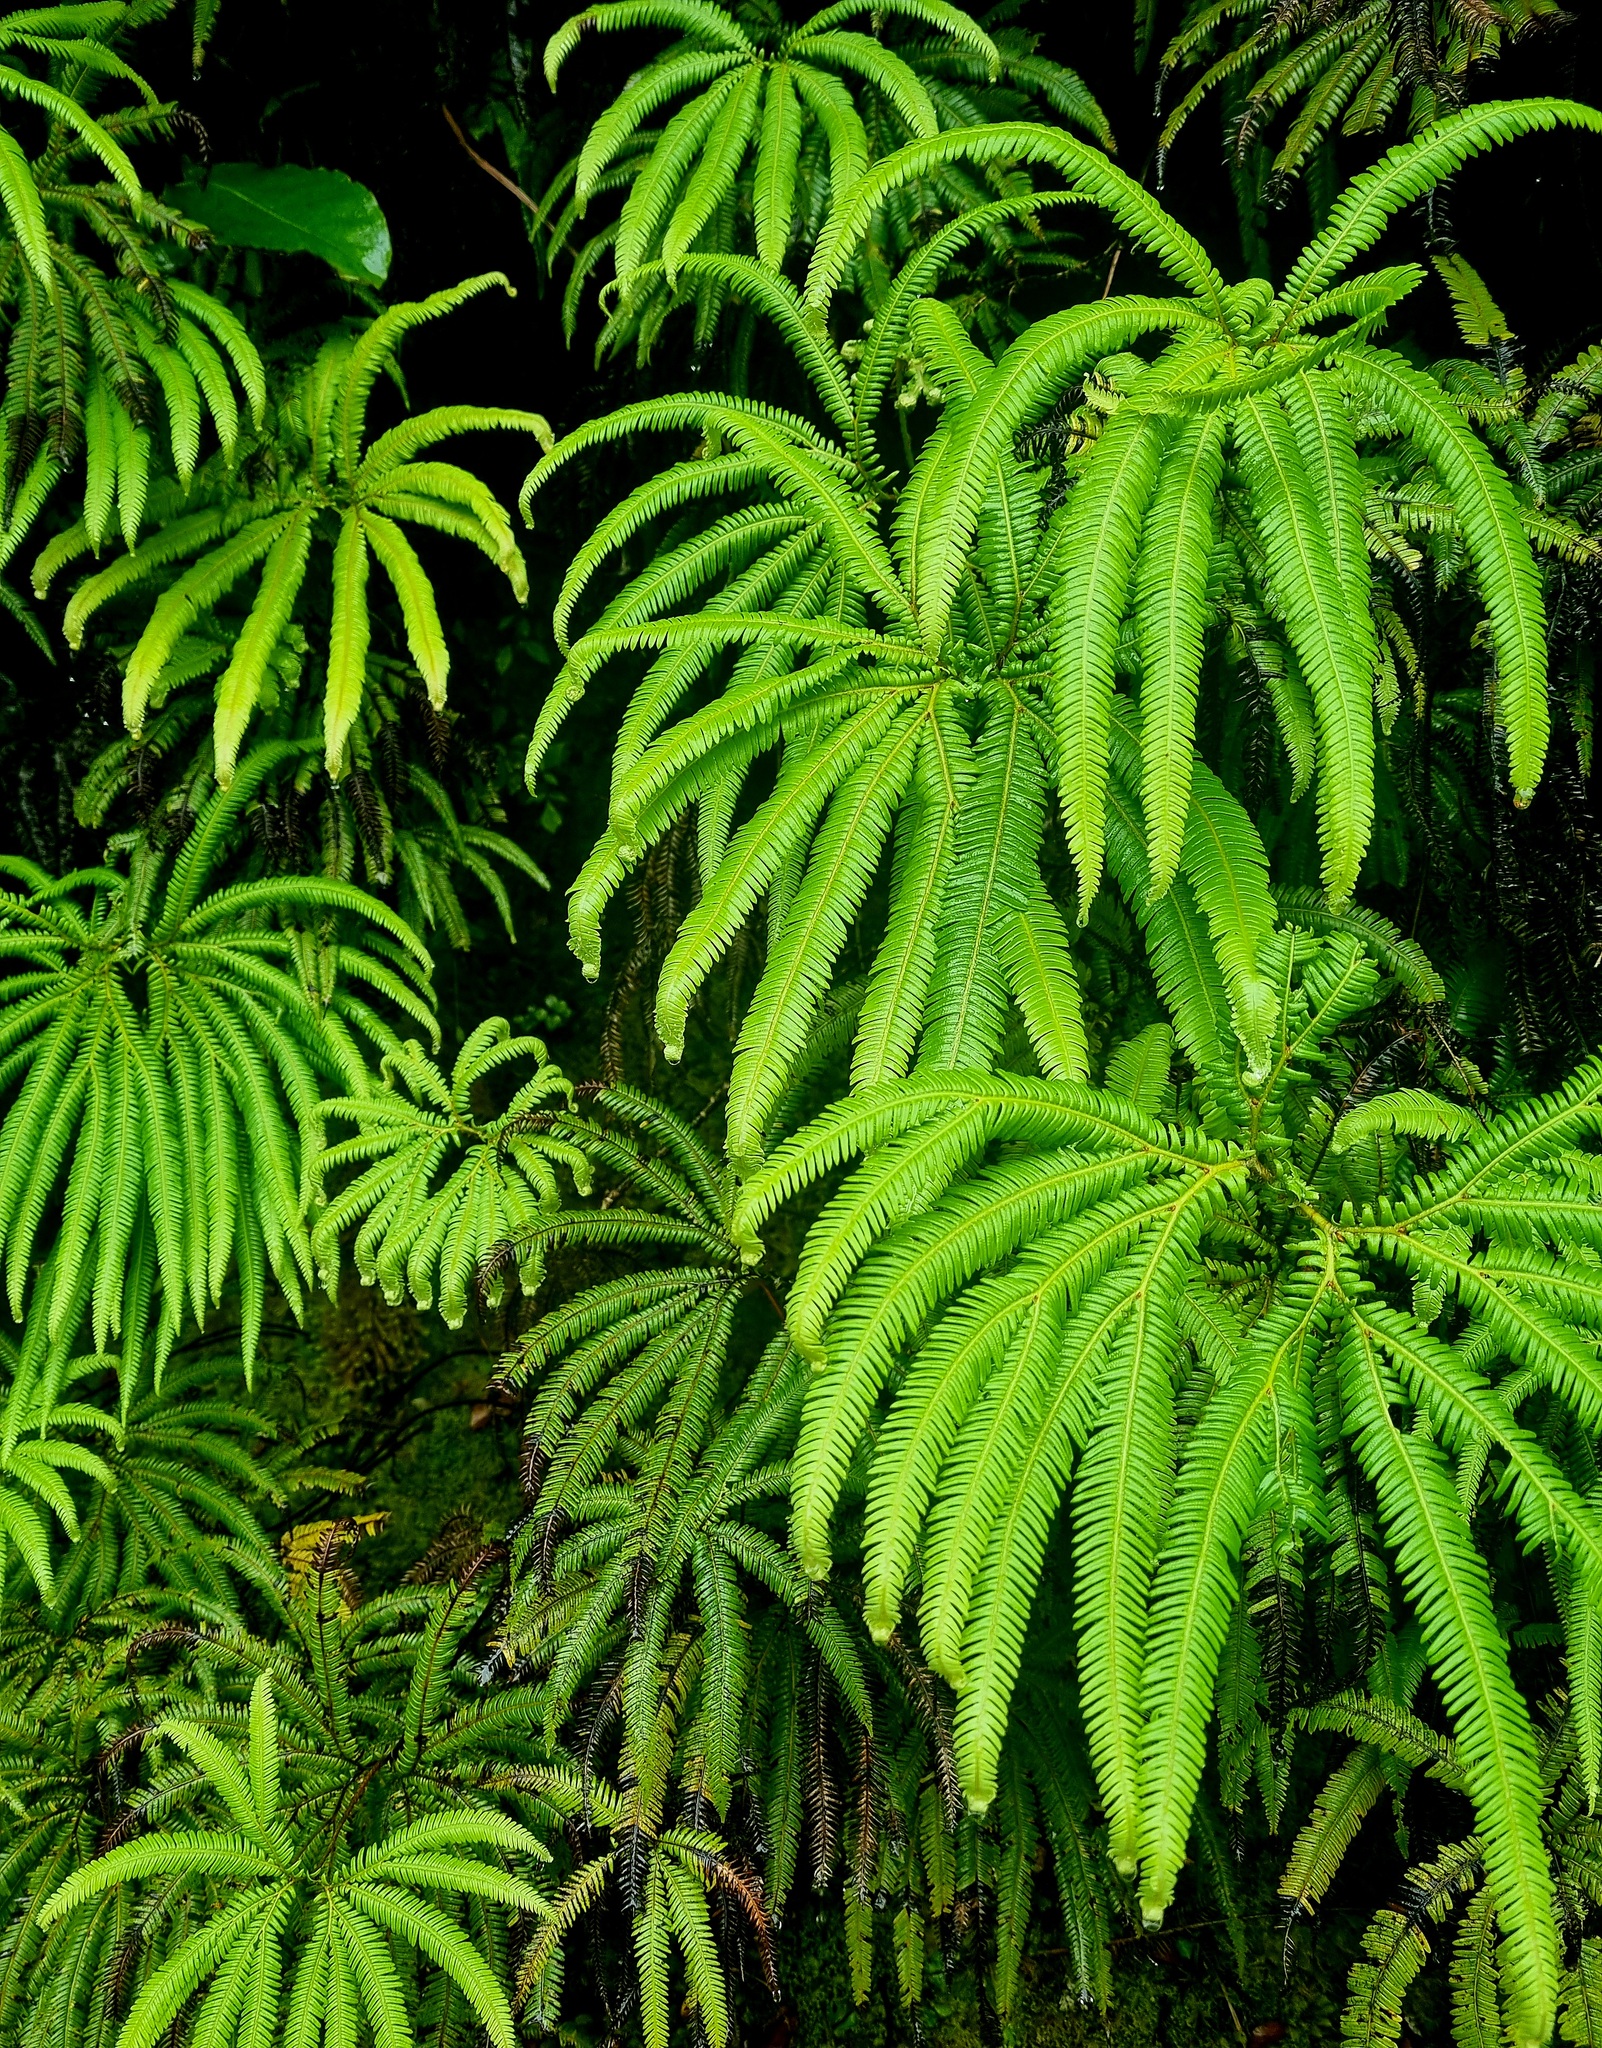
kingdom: Plantae
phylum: Tracheophyta
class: Polypodiopsida
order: Gleicheniales
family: Gleicheniaceae
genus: Sticherus
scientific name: Sticherus cunninghamii
